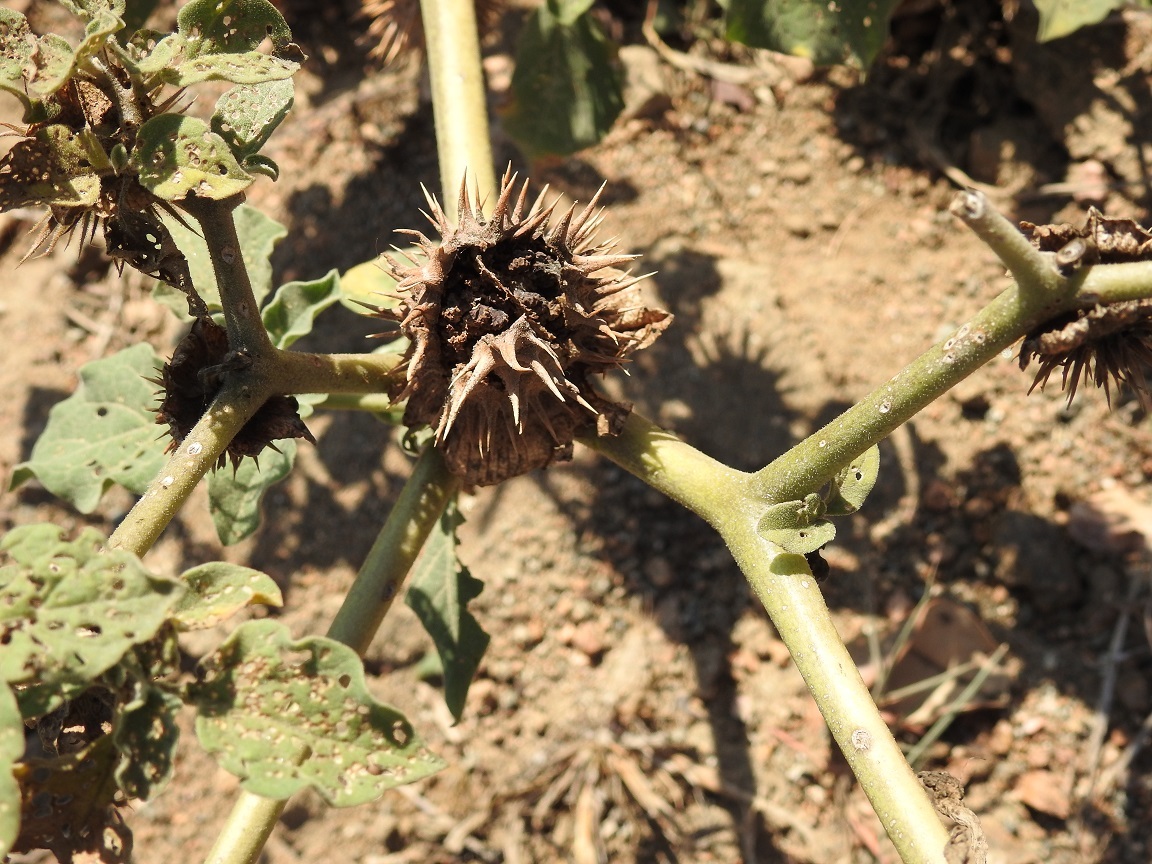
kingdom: Plantae
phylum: Tracheophyta
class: Magnoliopsida
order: Solanales
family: Solanaceae
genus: Datura
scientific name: Datura discolor
